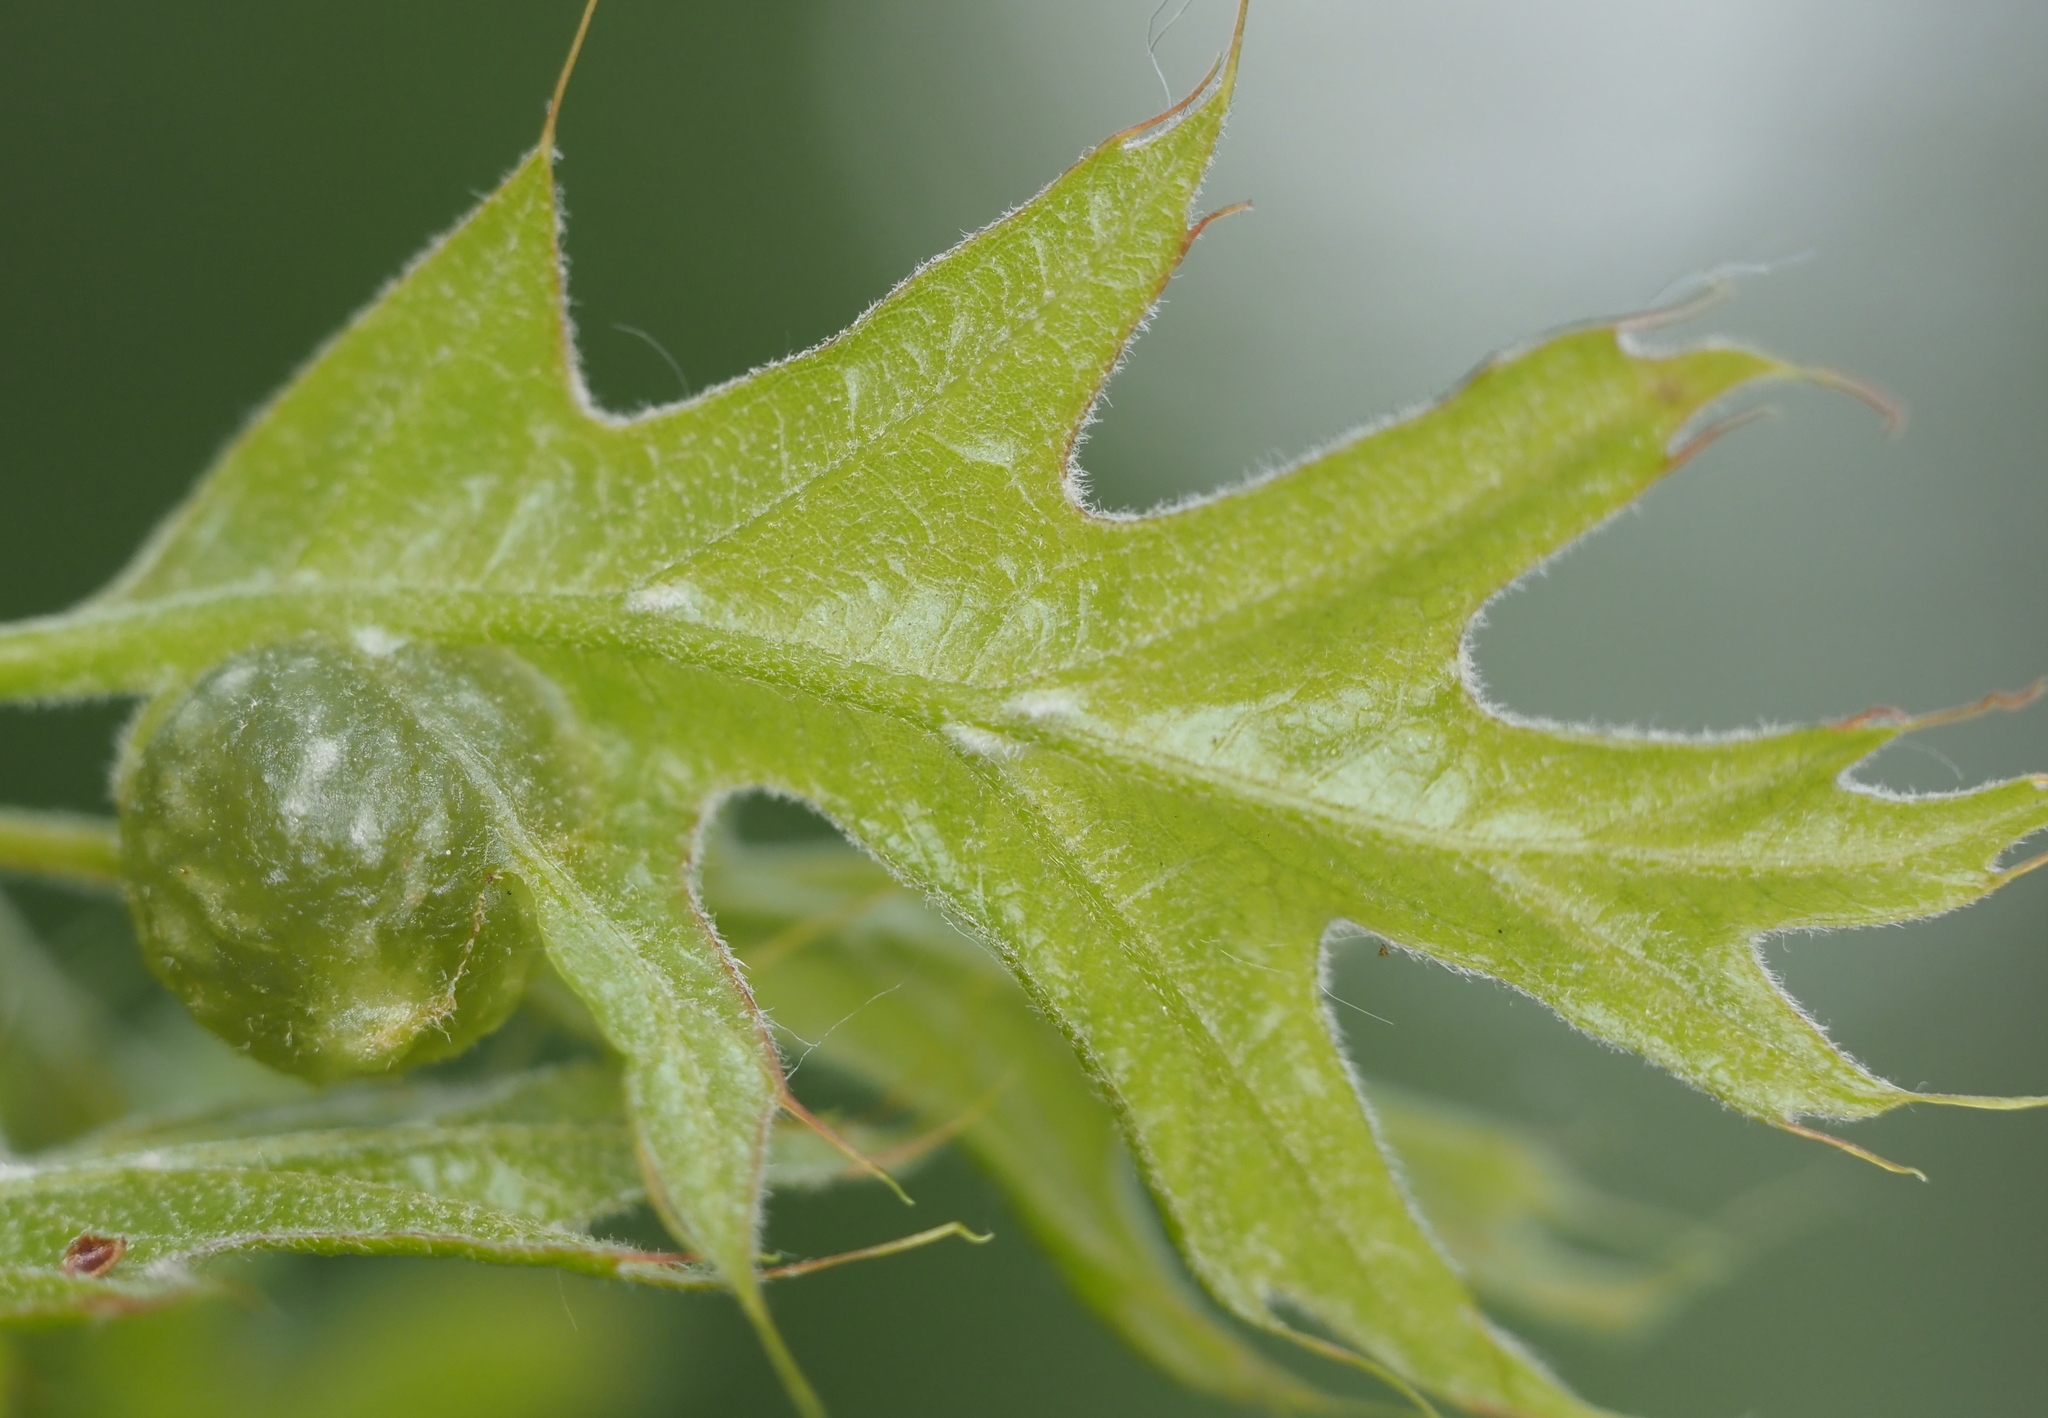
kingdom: Animalia
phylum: Arthropoda
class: Insecta
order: Hymenoptera
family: Cynipidae
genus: Dryocosmus
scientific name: Dryocosmus quercuspalustris
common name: Succulent oak gall wasp
